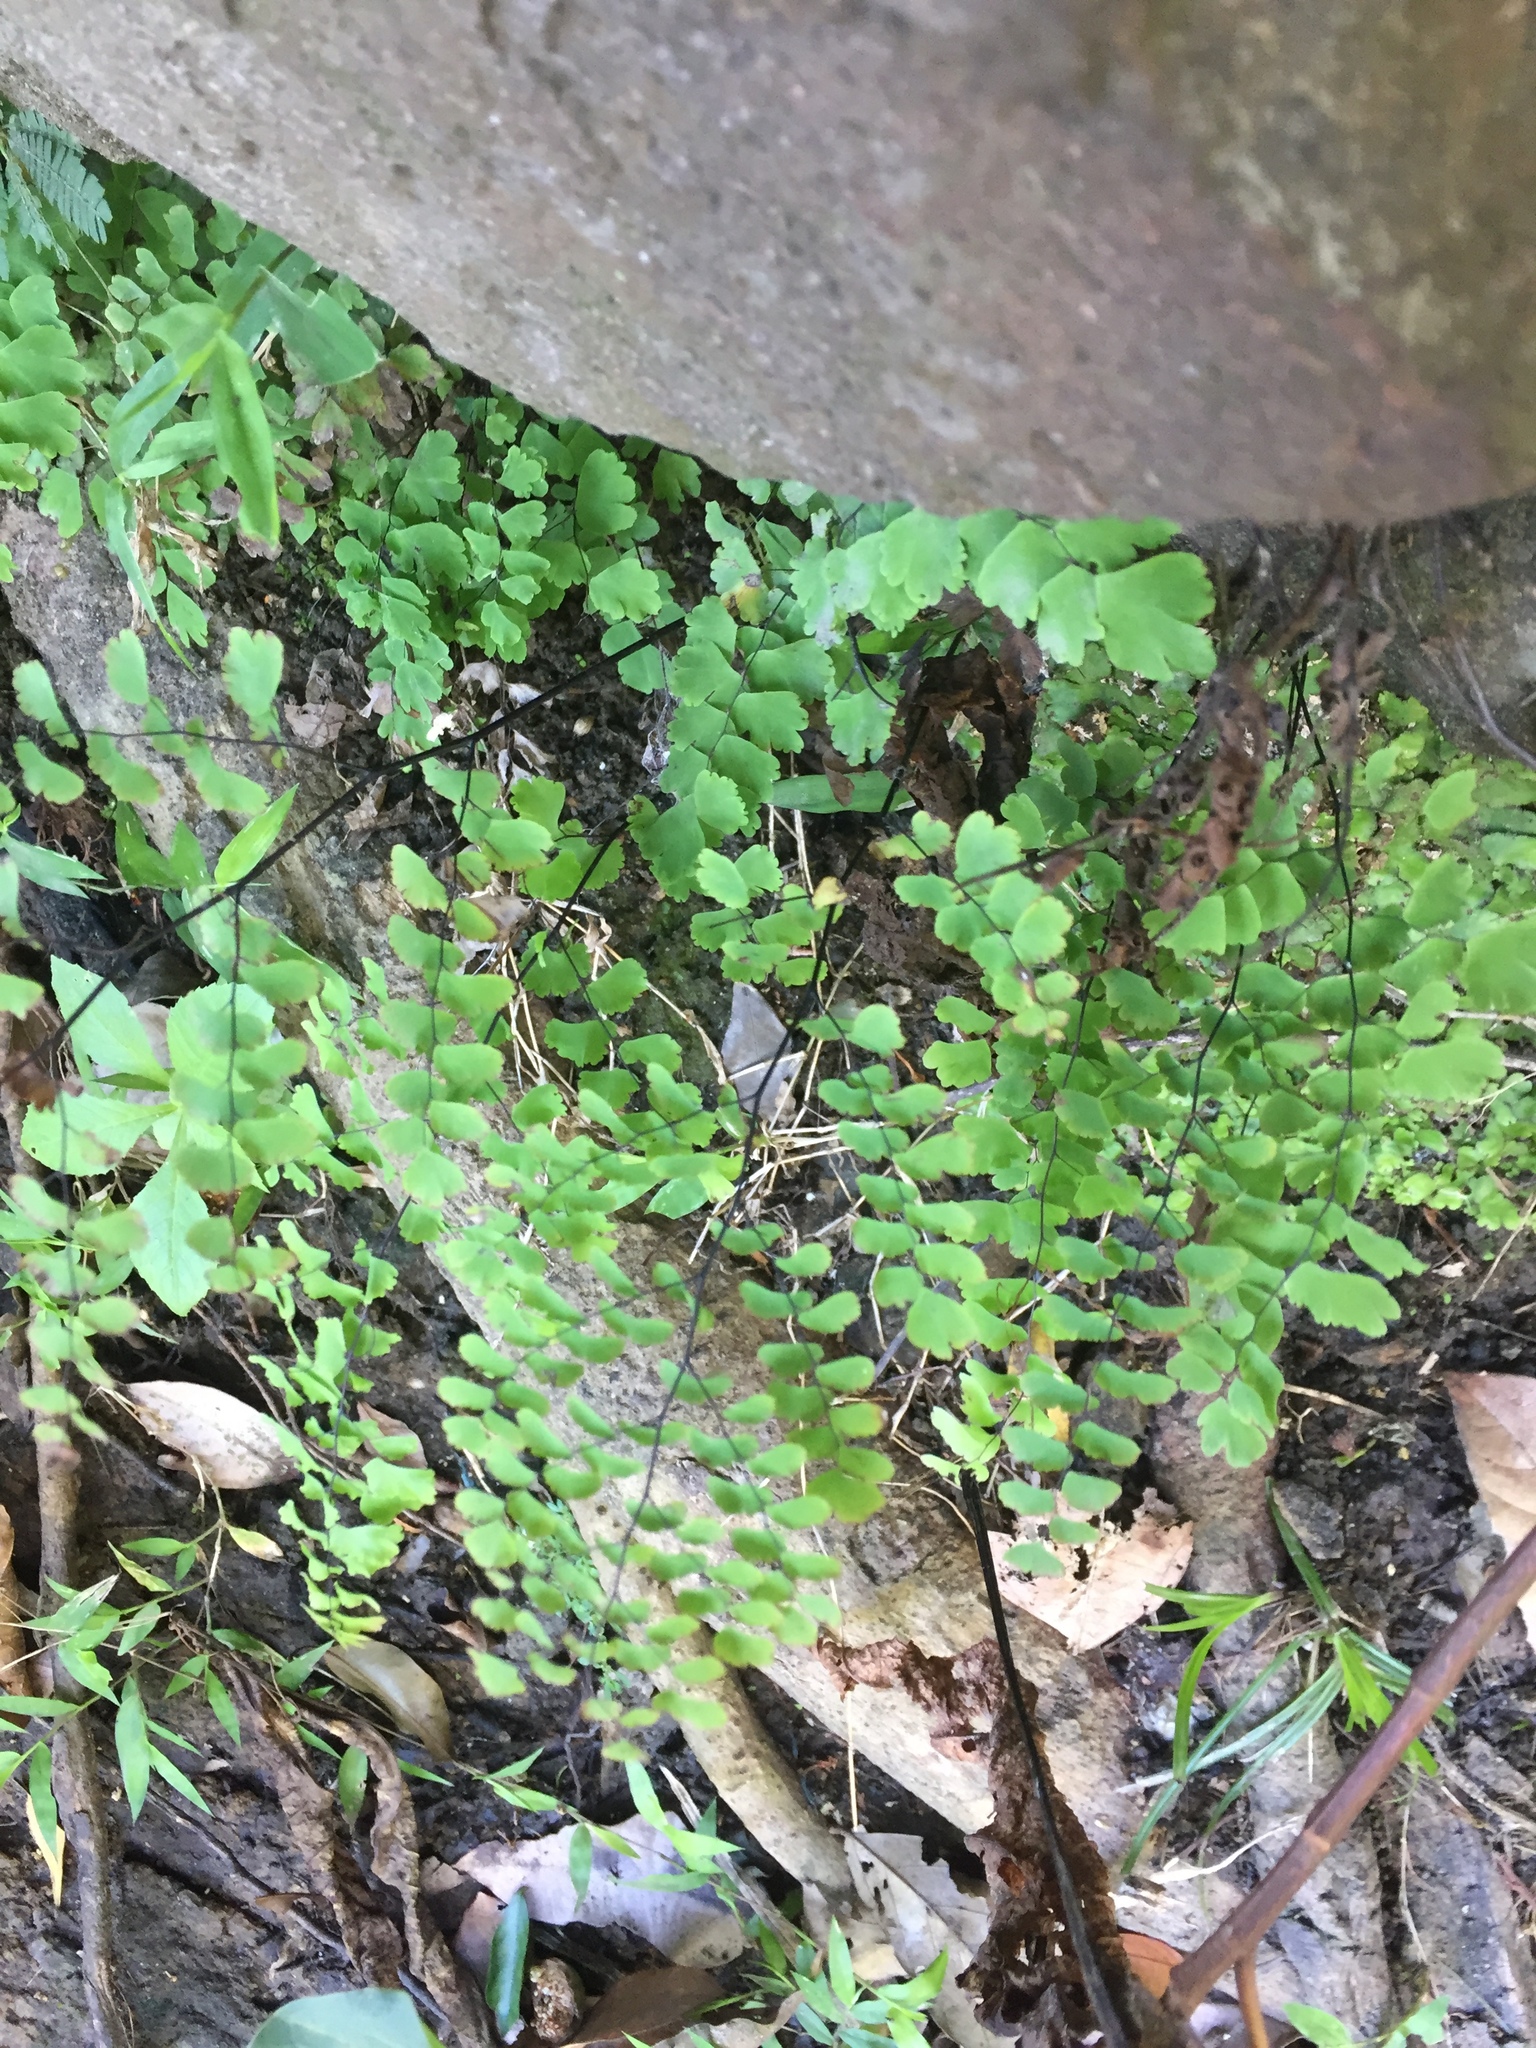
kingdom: Plantae
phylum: Tracheophyta
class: Polypodiopsida
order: Polypodiales
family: Pteridaceae
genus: Adiantum
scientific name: Adiantum capillus-veneris
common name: Maidenhair fern
